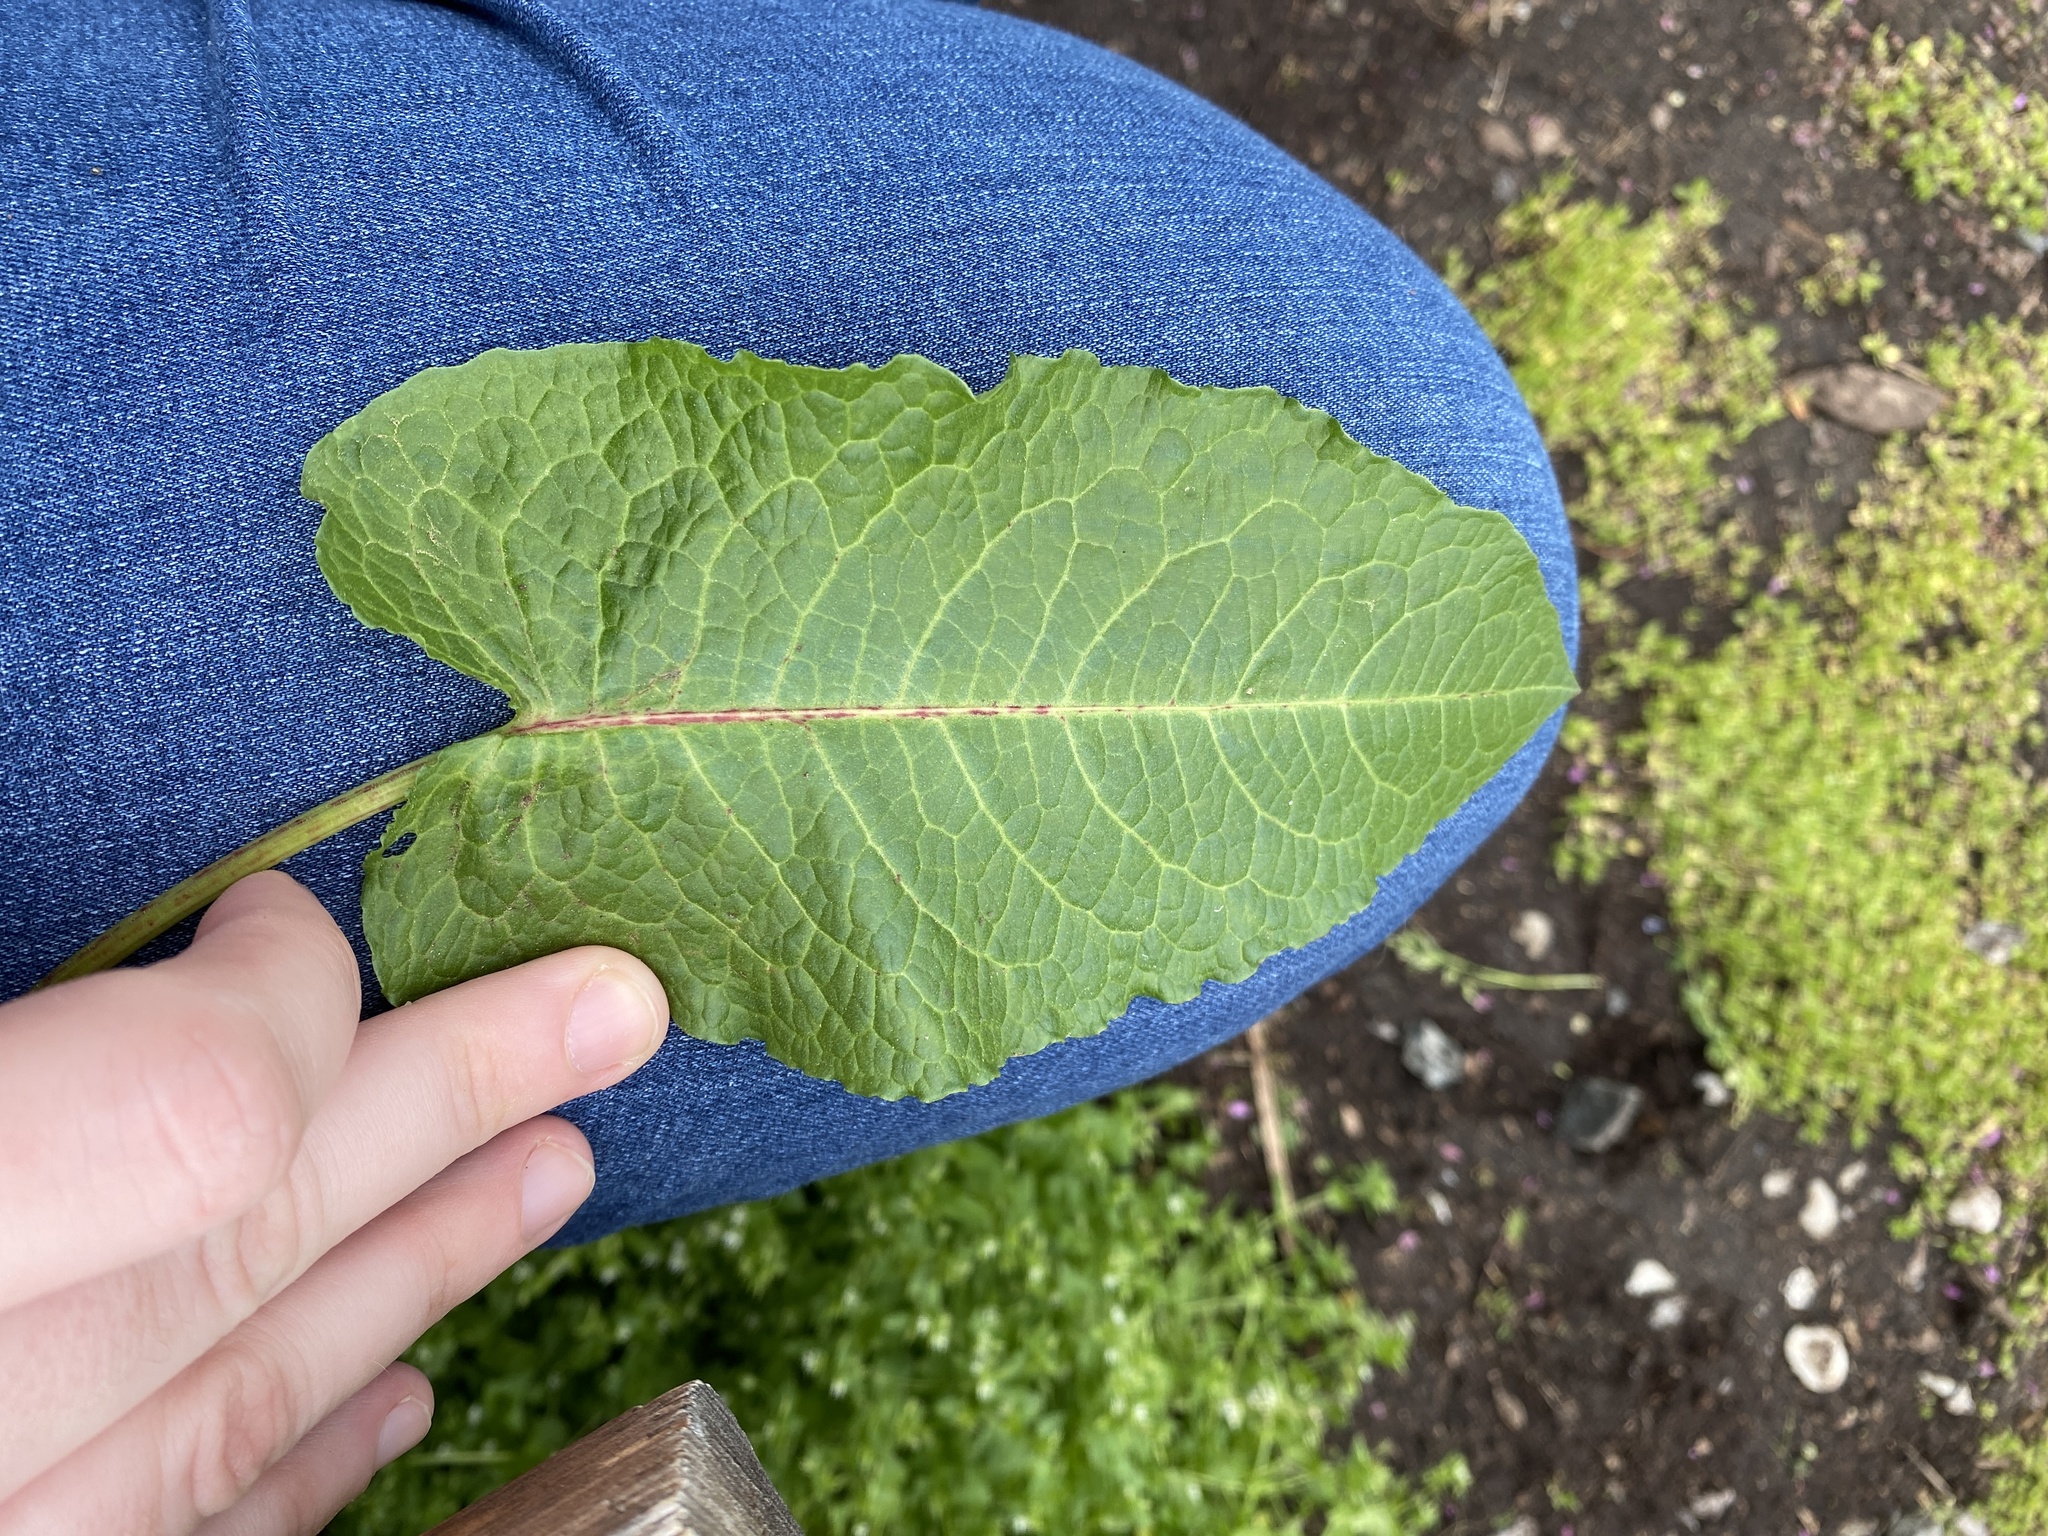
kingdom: Plantae
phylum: Tracheophyta
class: Magnoliopsida
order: Caryophyllales
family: Polygonaceae
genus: Rumex
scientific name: Rumex obtusifolius
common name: Bitter dock
